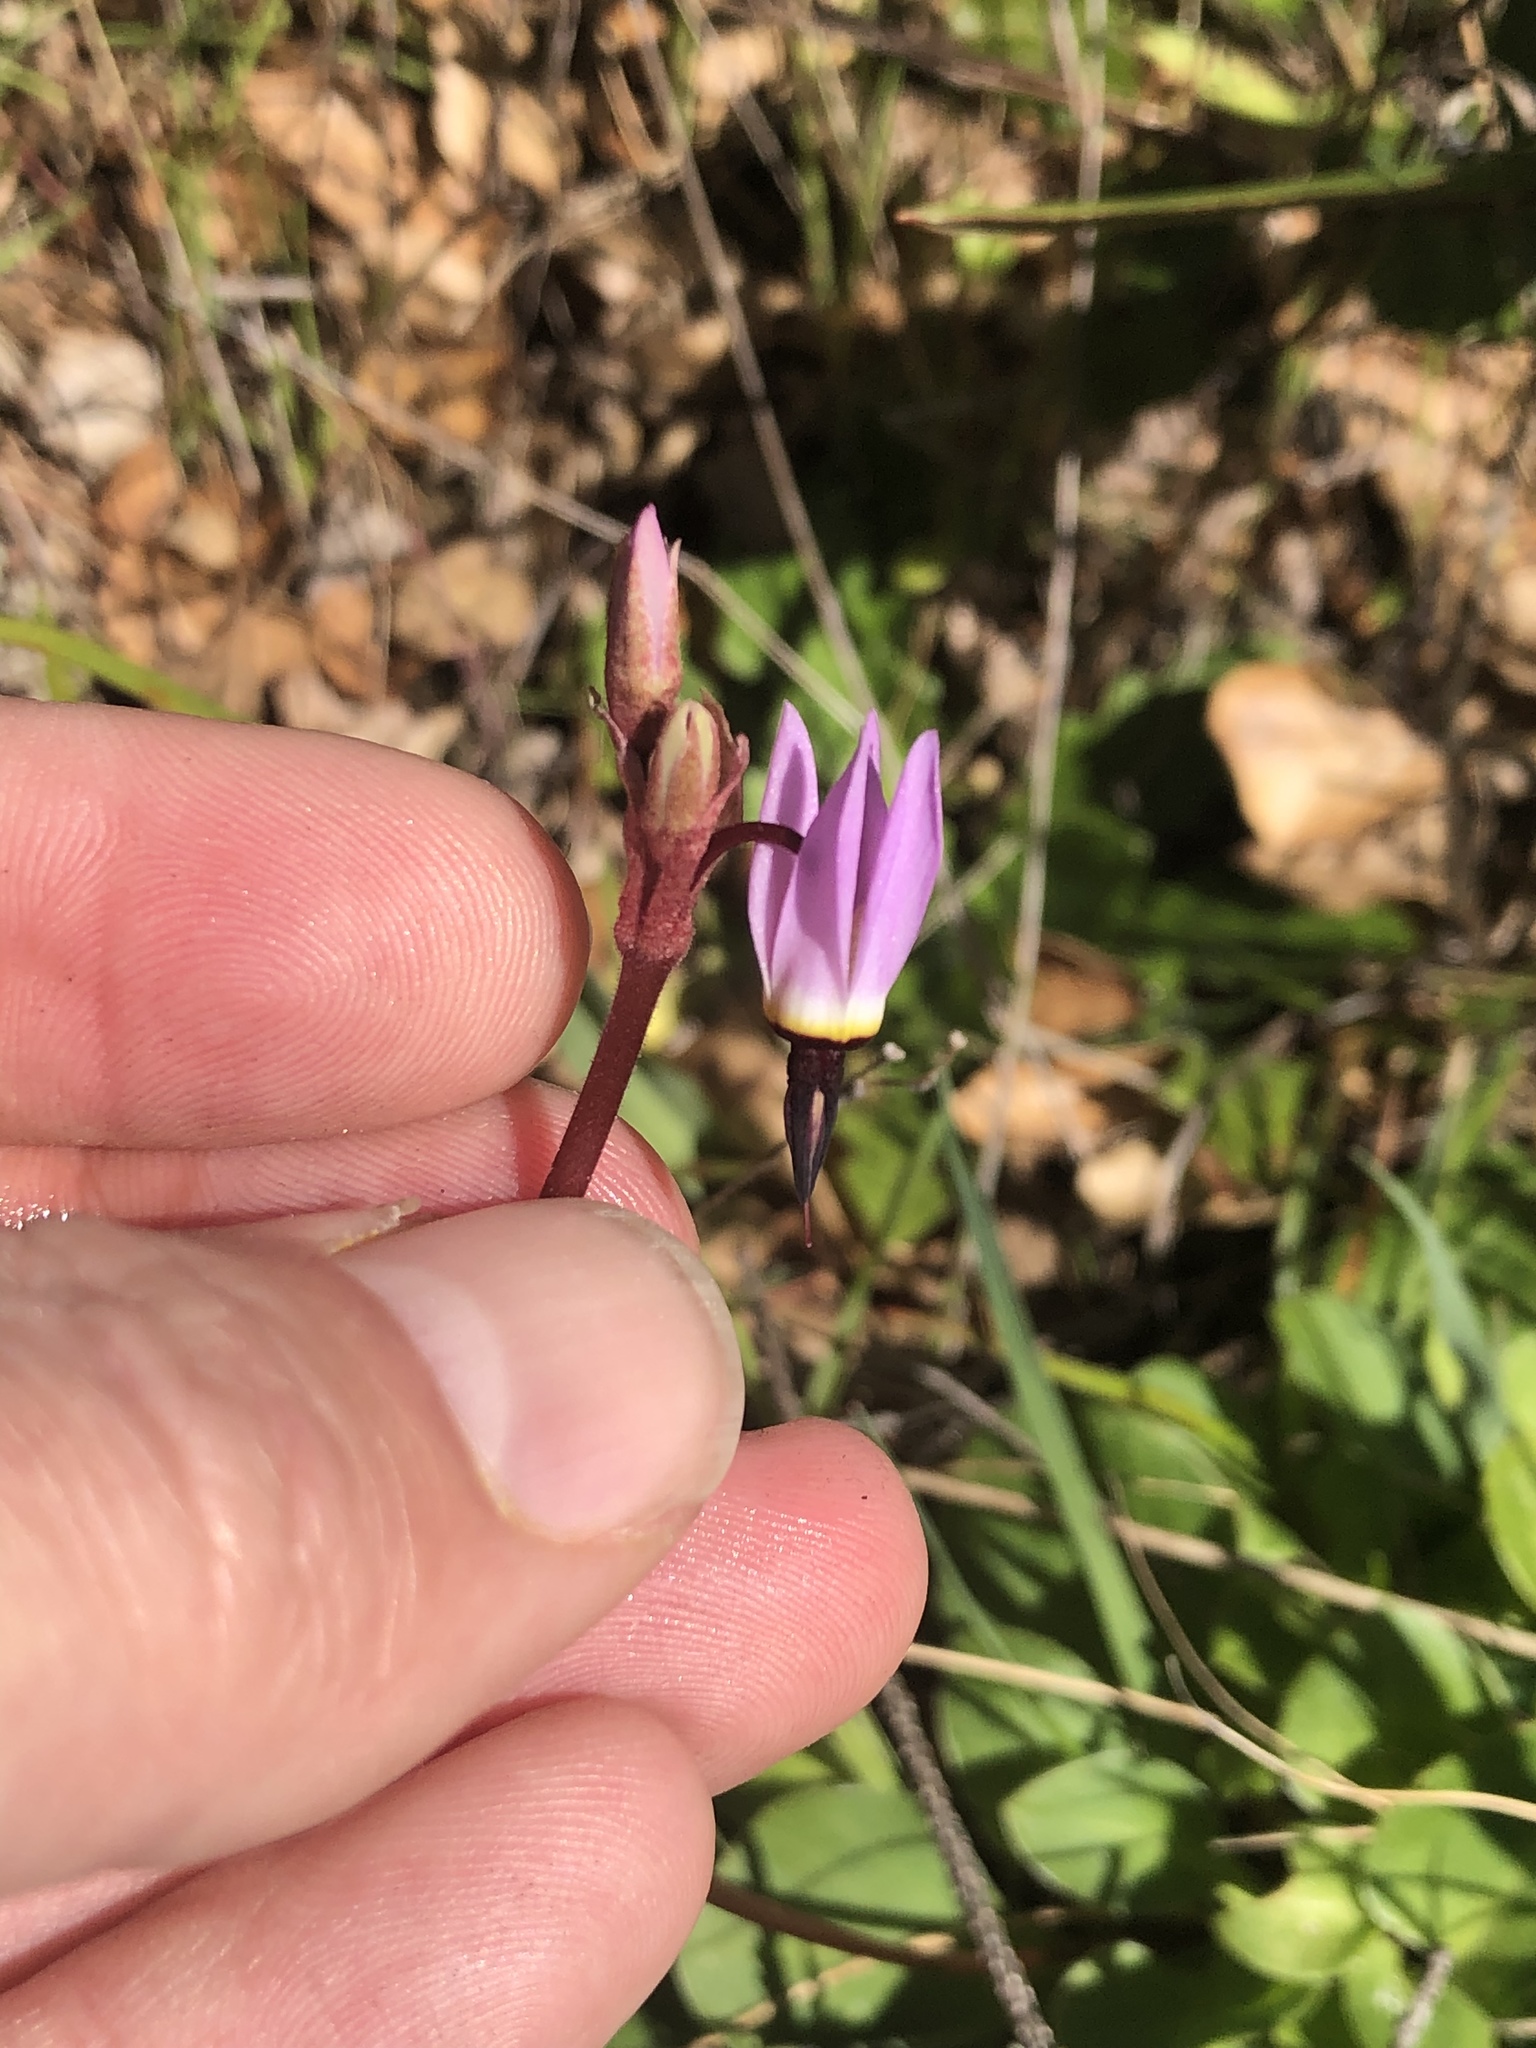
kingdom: Plantae
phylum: Tracheophyta
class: Magnoliopsida
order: Ericales
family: Primulaceae
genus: Dodecatheon
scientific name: Dodecatheon hendersonii
